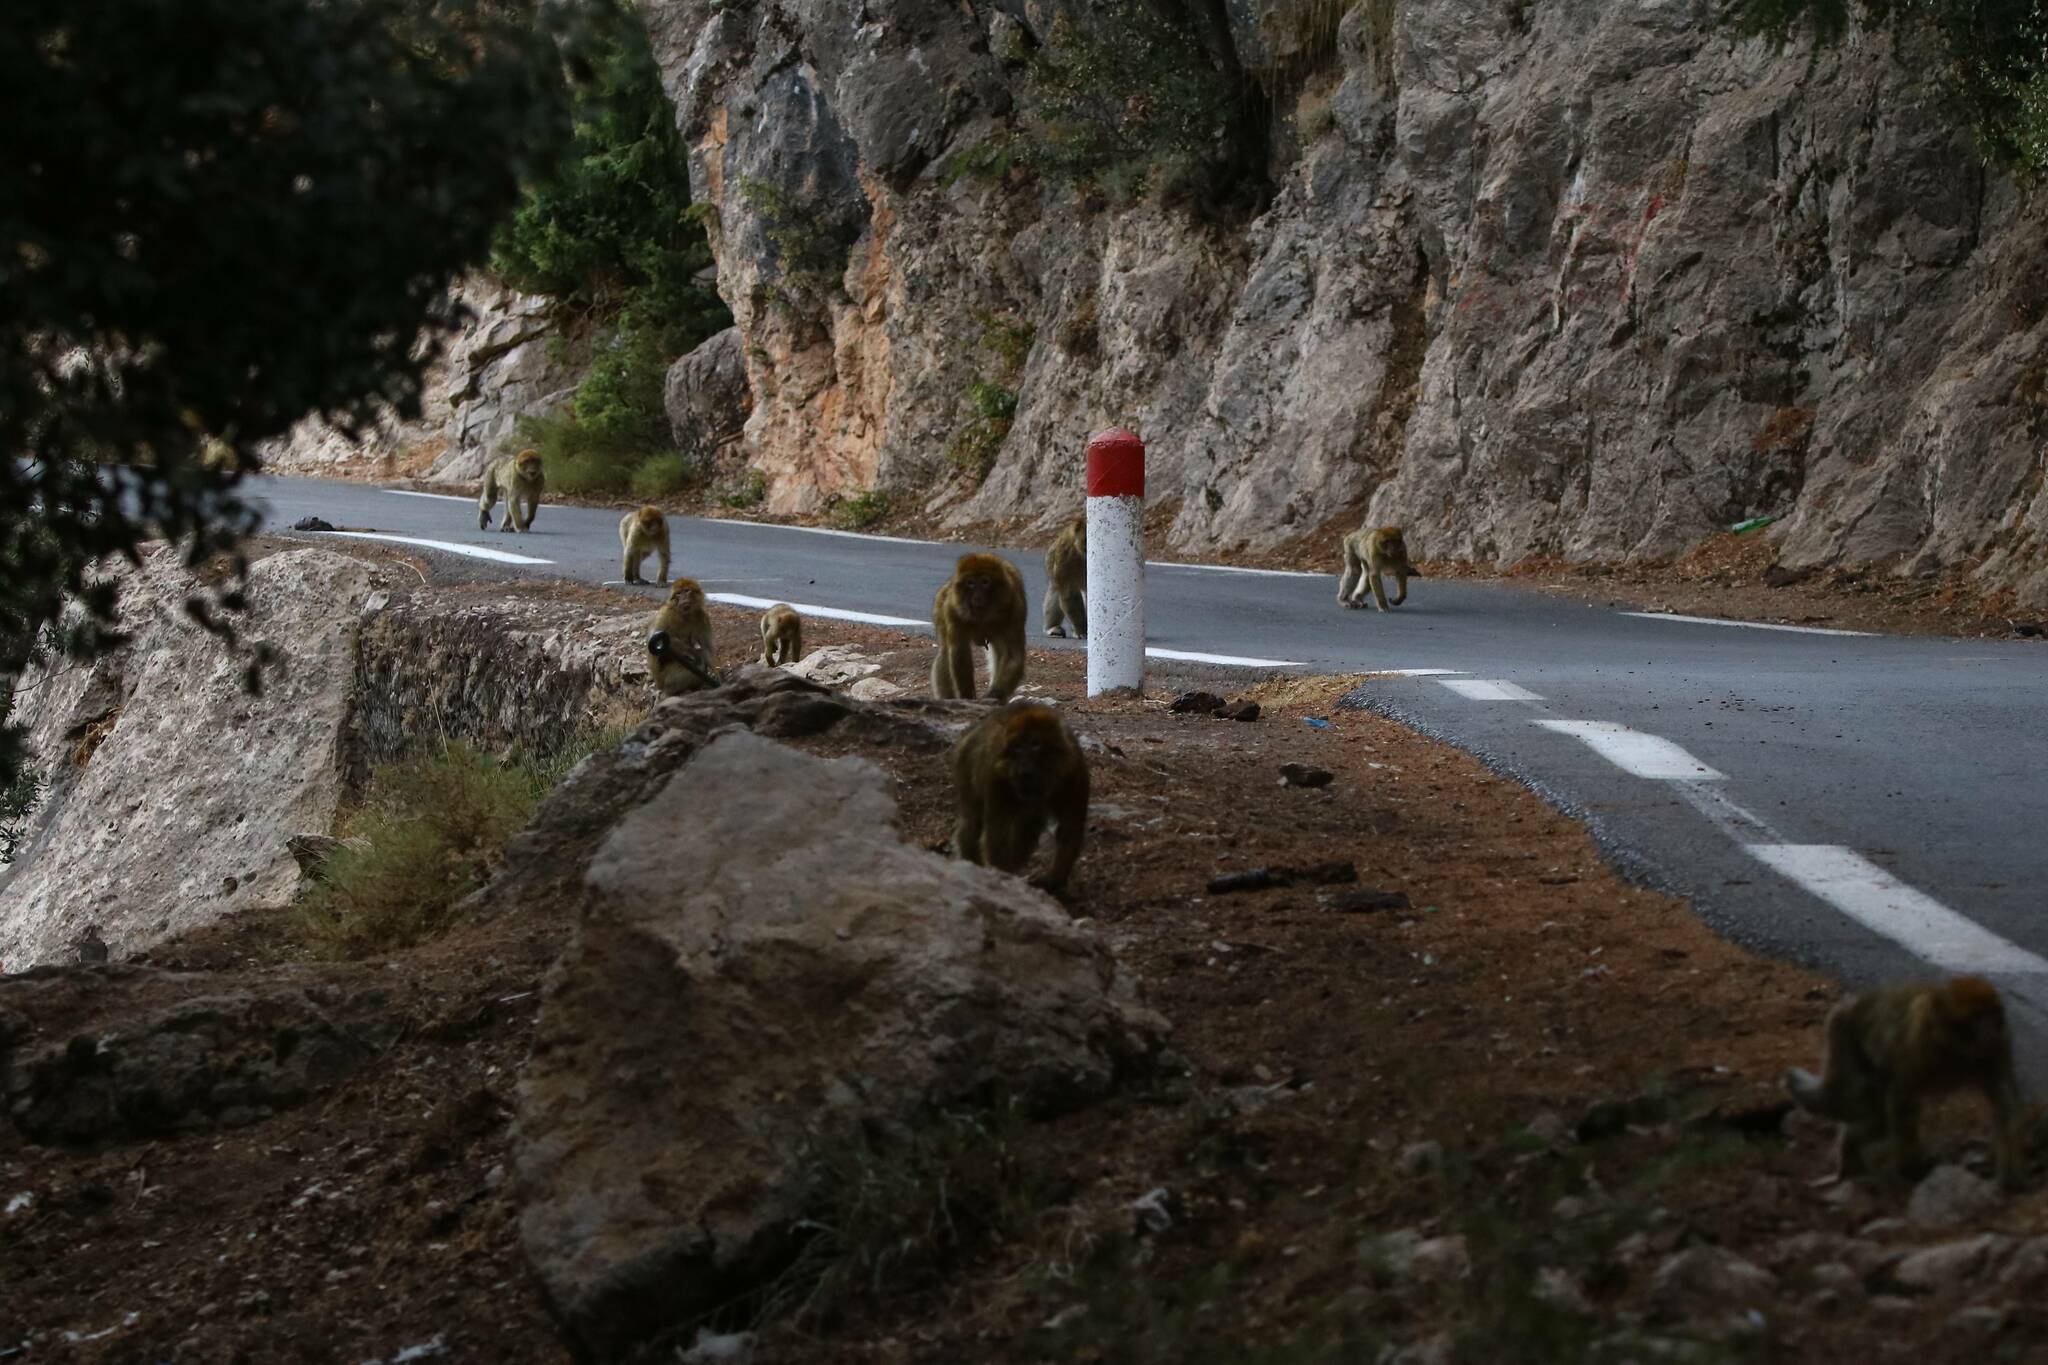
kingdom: Animalia
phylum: Chordata
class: Mammalia
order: Primates
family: Cercopithecidae
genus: Macaca
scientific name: Macaca sylvanus
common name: Barbary macaque
